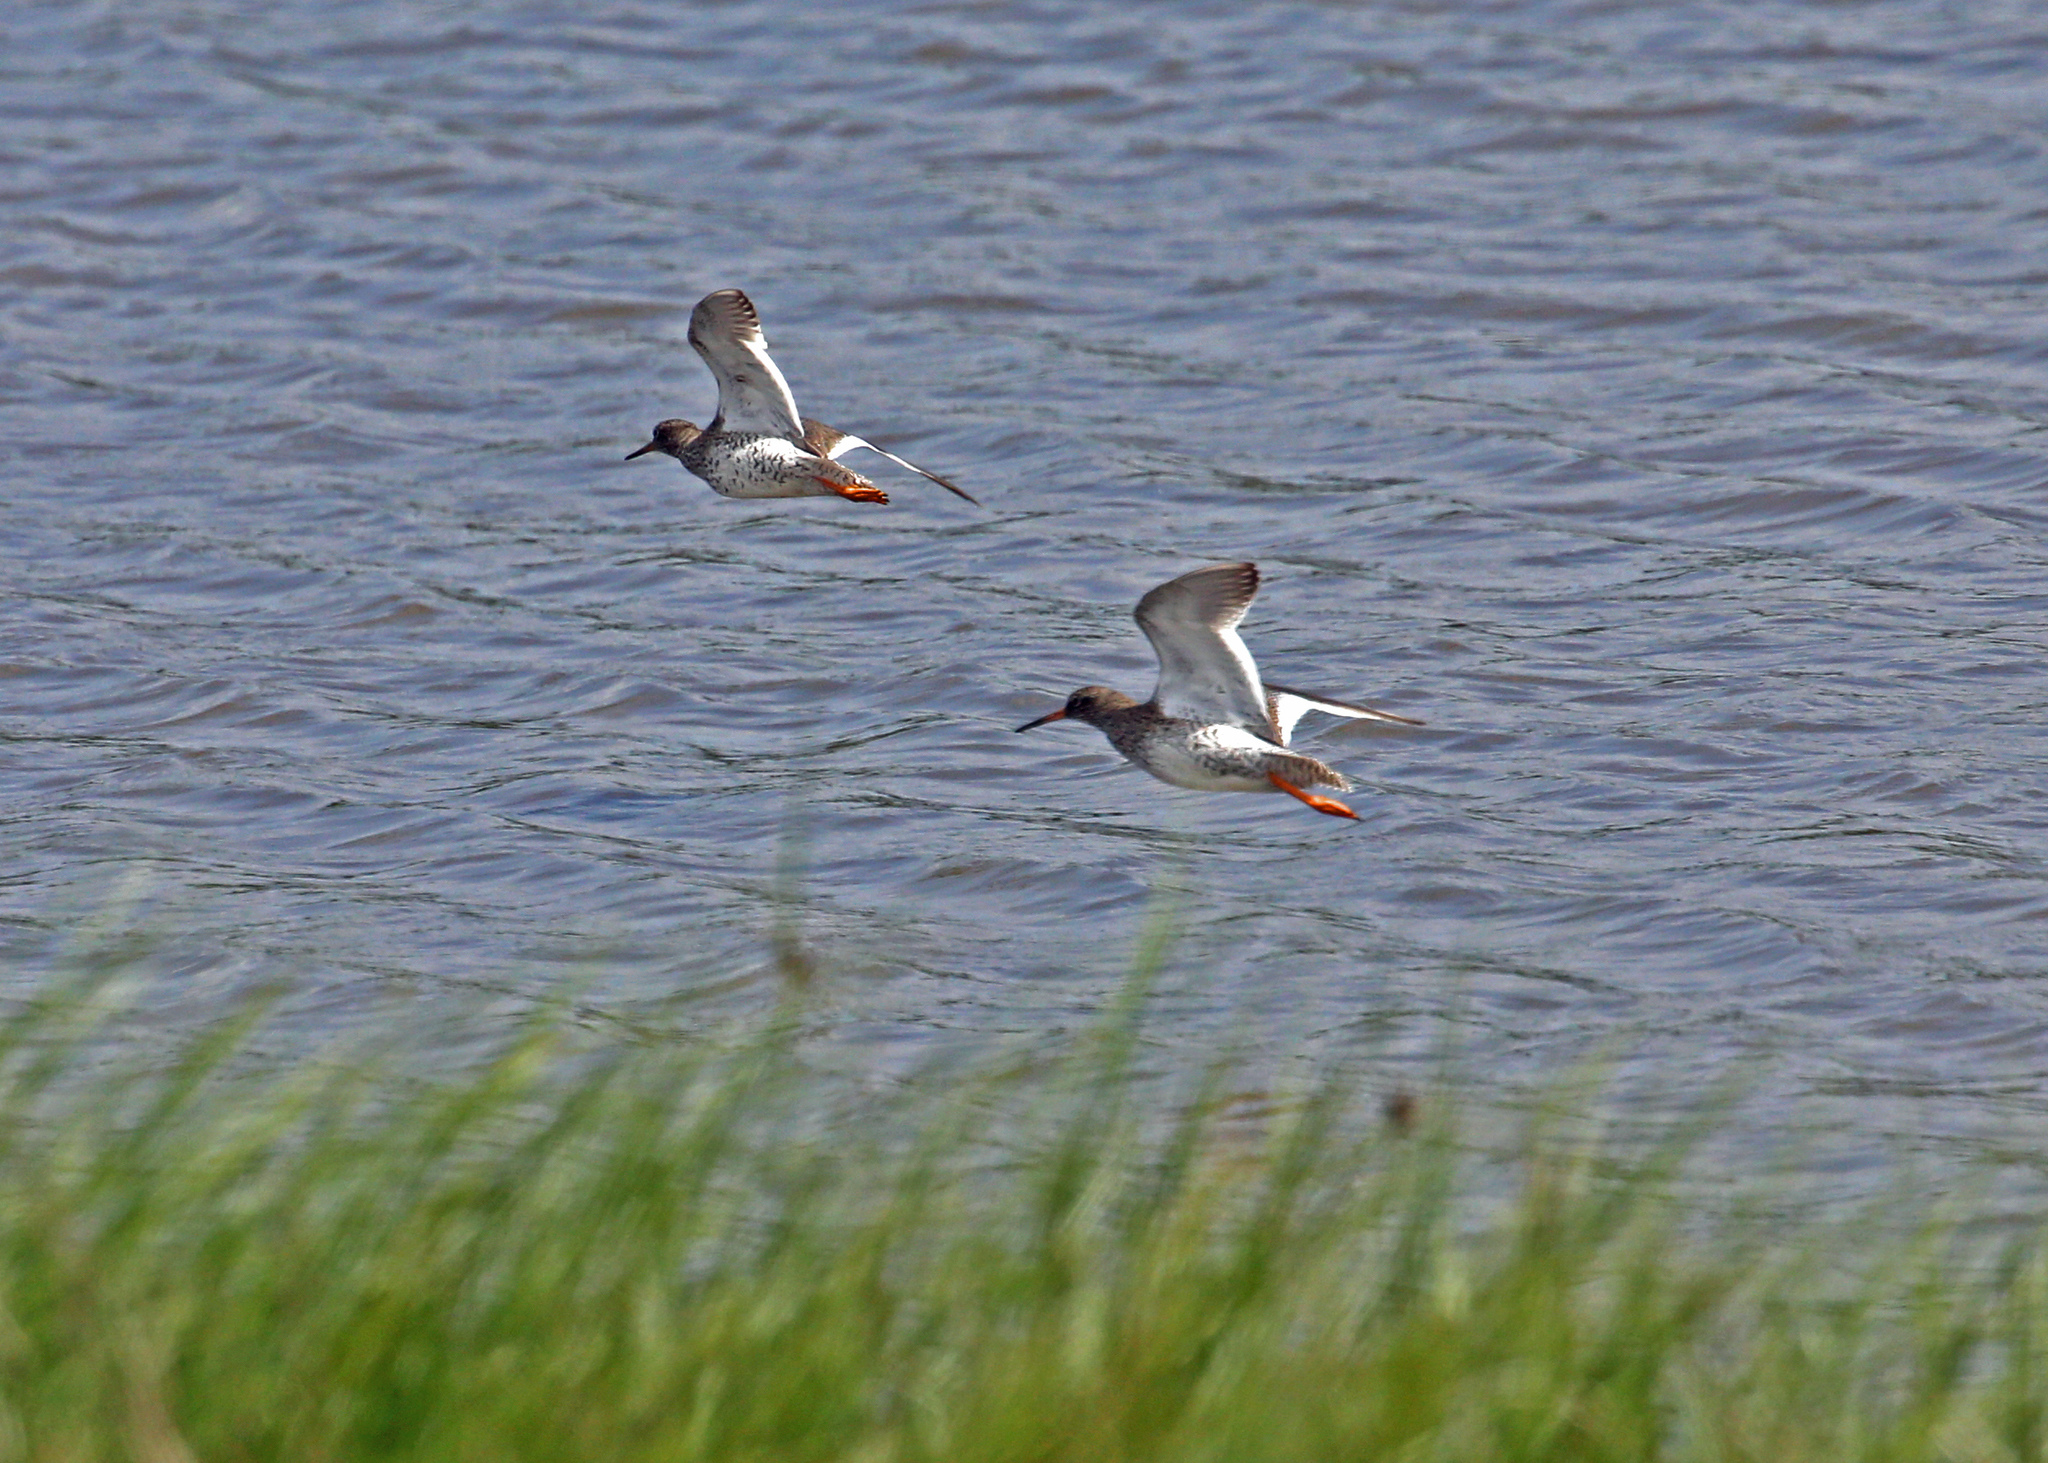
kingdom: Animalia
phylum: Chordata
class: Aves
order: Charadriiformes
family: Scolopacidae
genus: Tringa
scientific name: Tringa totanus
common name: Common redshank
